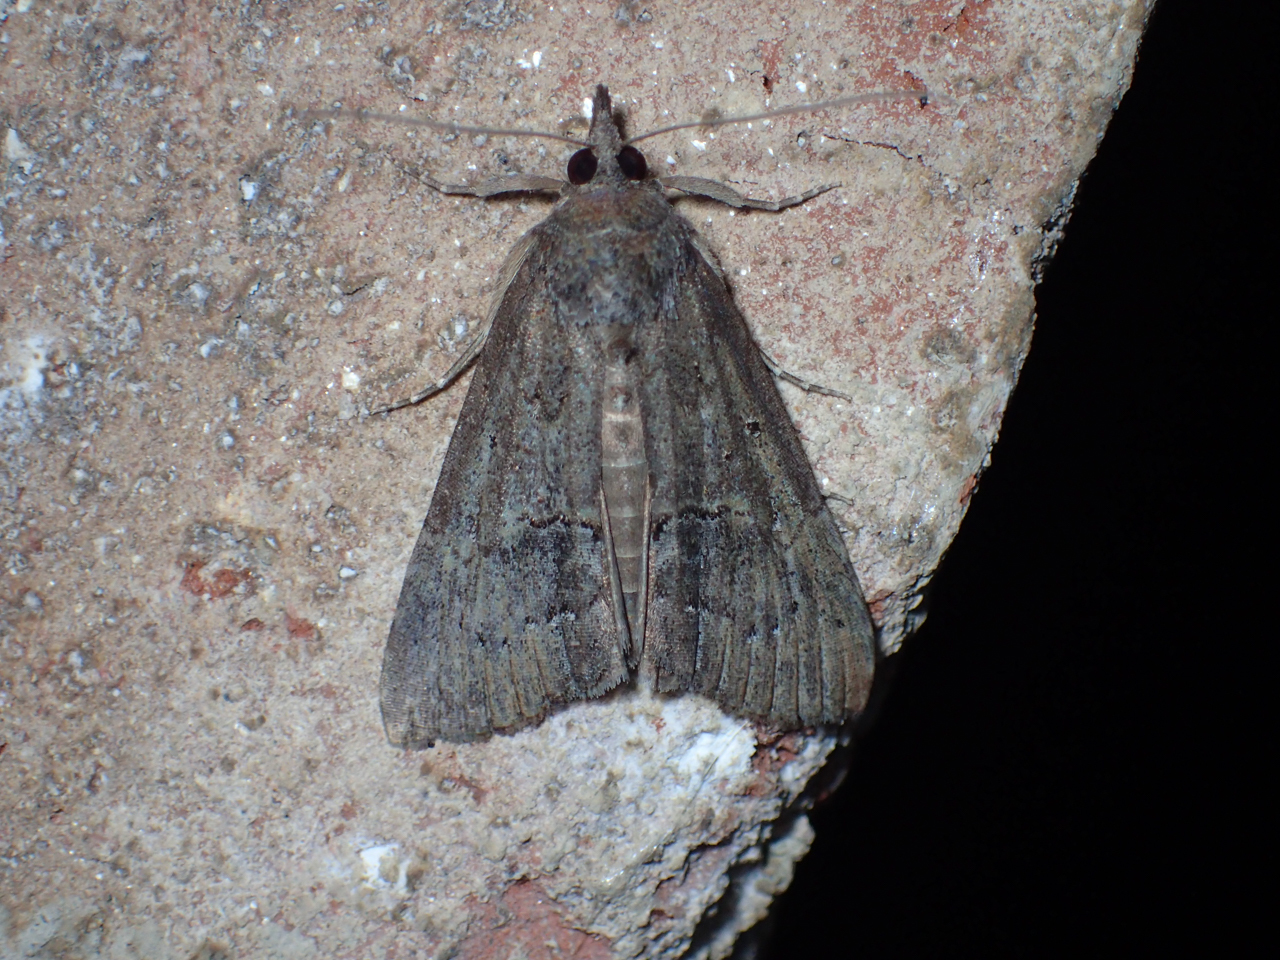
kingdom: Animalia
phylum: Arthropoda
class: Insecta
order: Lepidoptera
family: Erebidae
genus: Hypena
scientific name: Hypena scabra
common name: Green cloverworm
